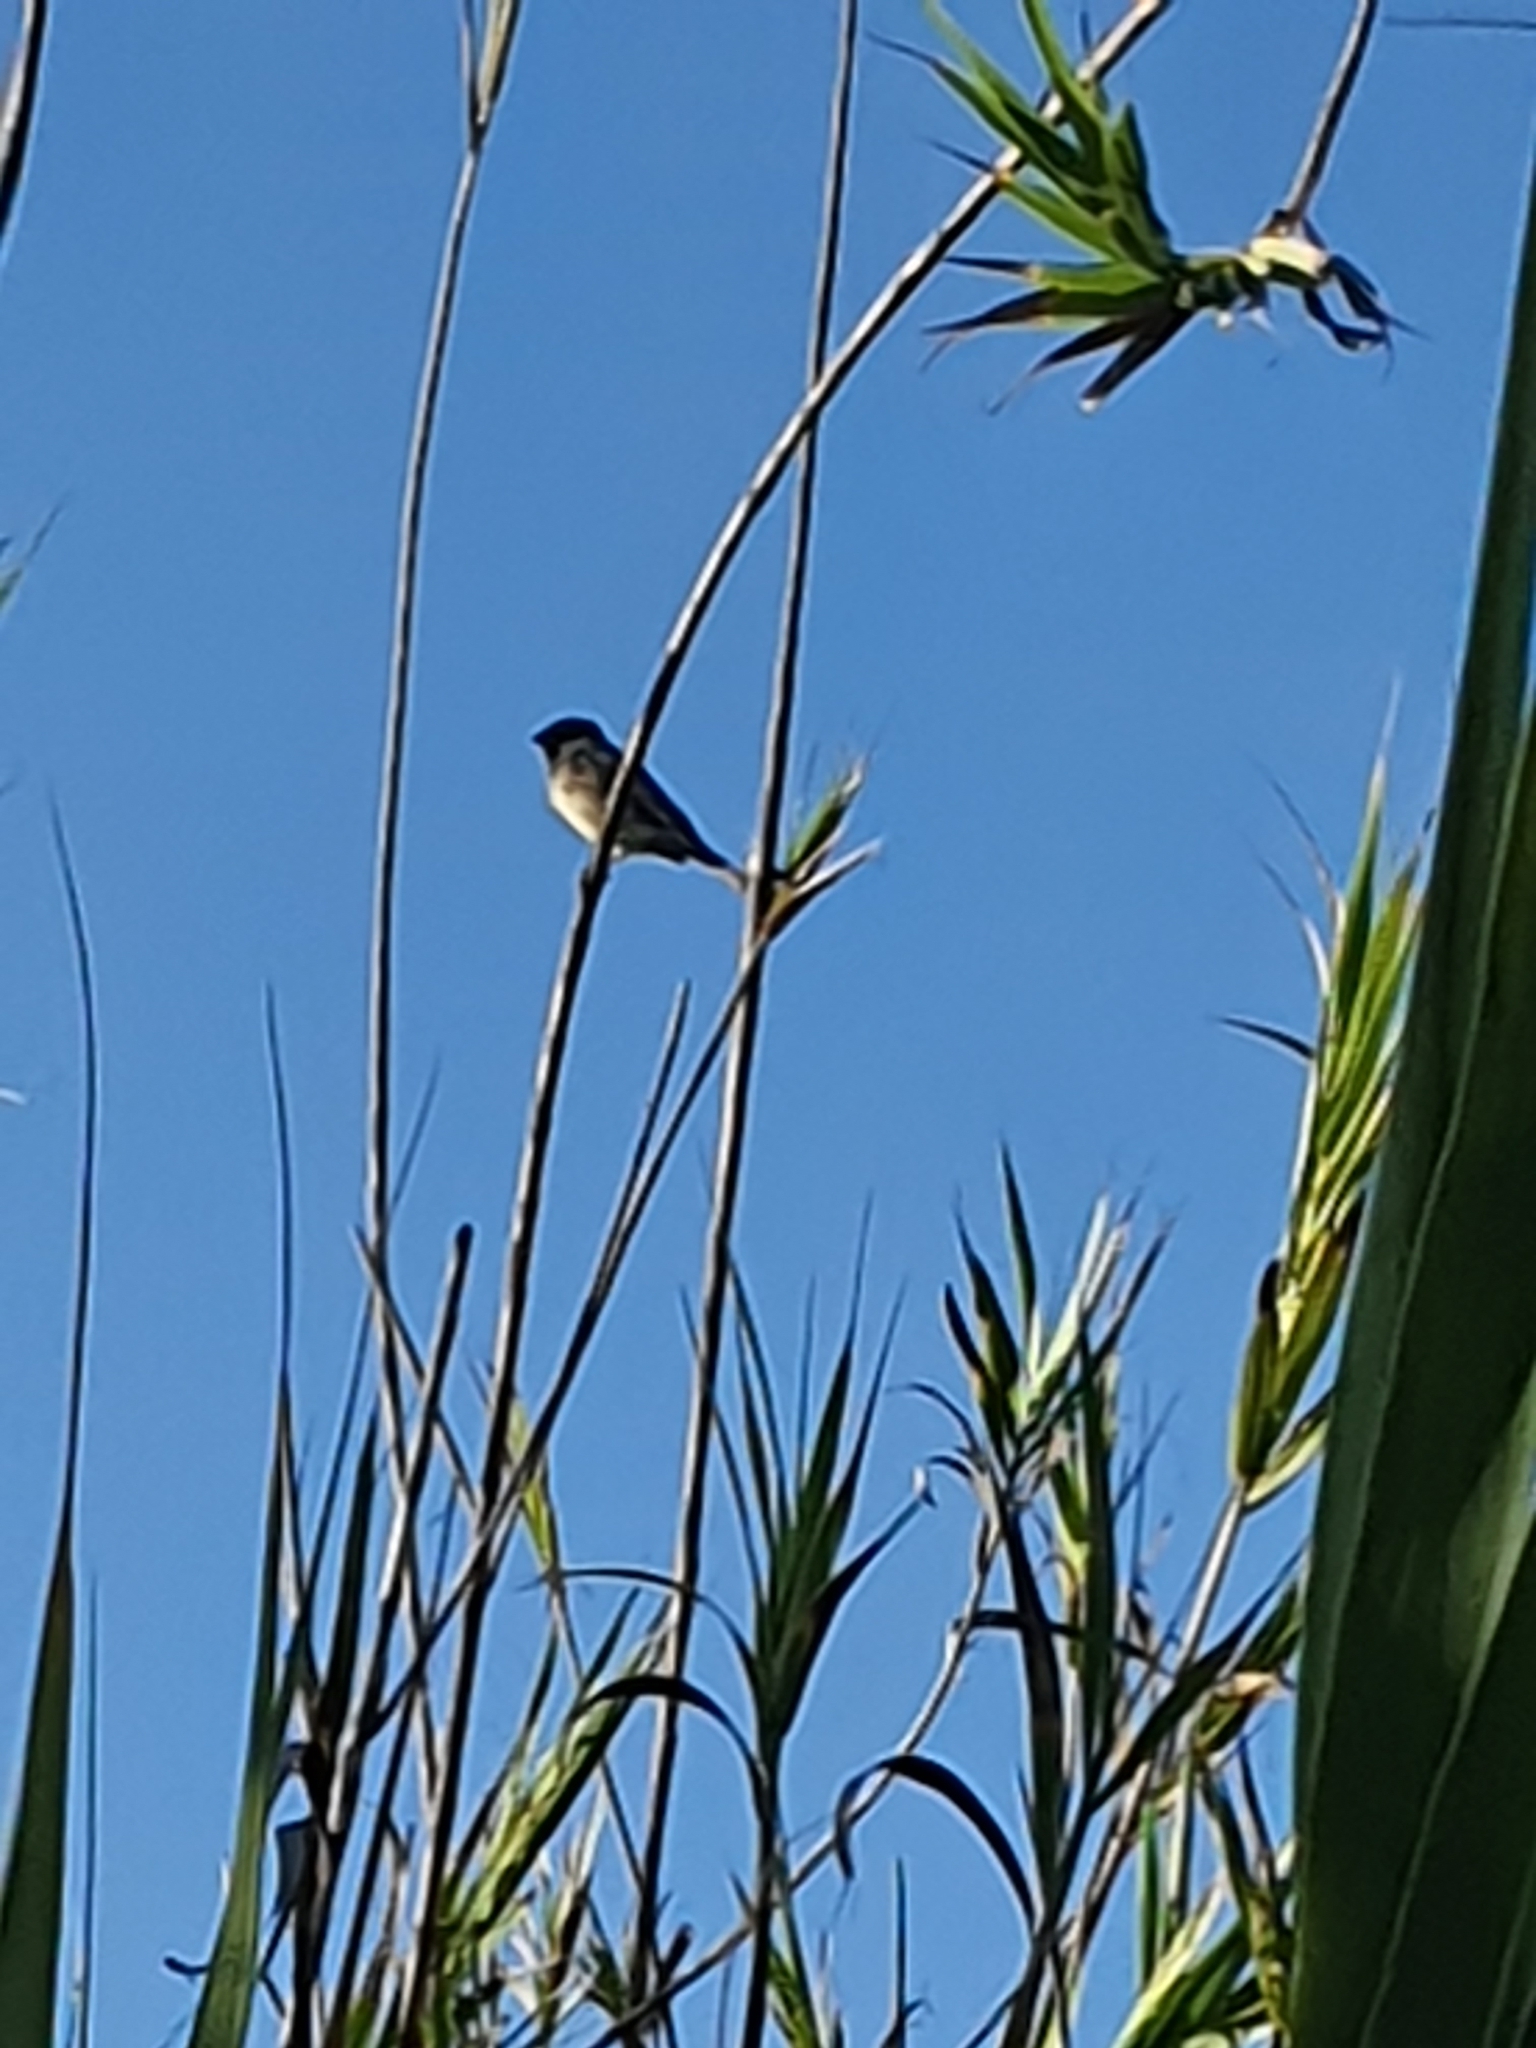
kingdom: Animalia
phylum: Chordata
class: Aves
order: Passeriformes
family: Passeridae
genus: Passer
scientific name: Passer hispaniolensis
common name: Spanish sparrow
